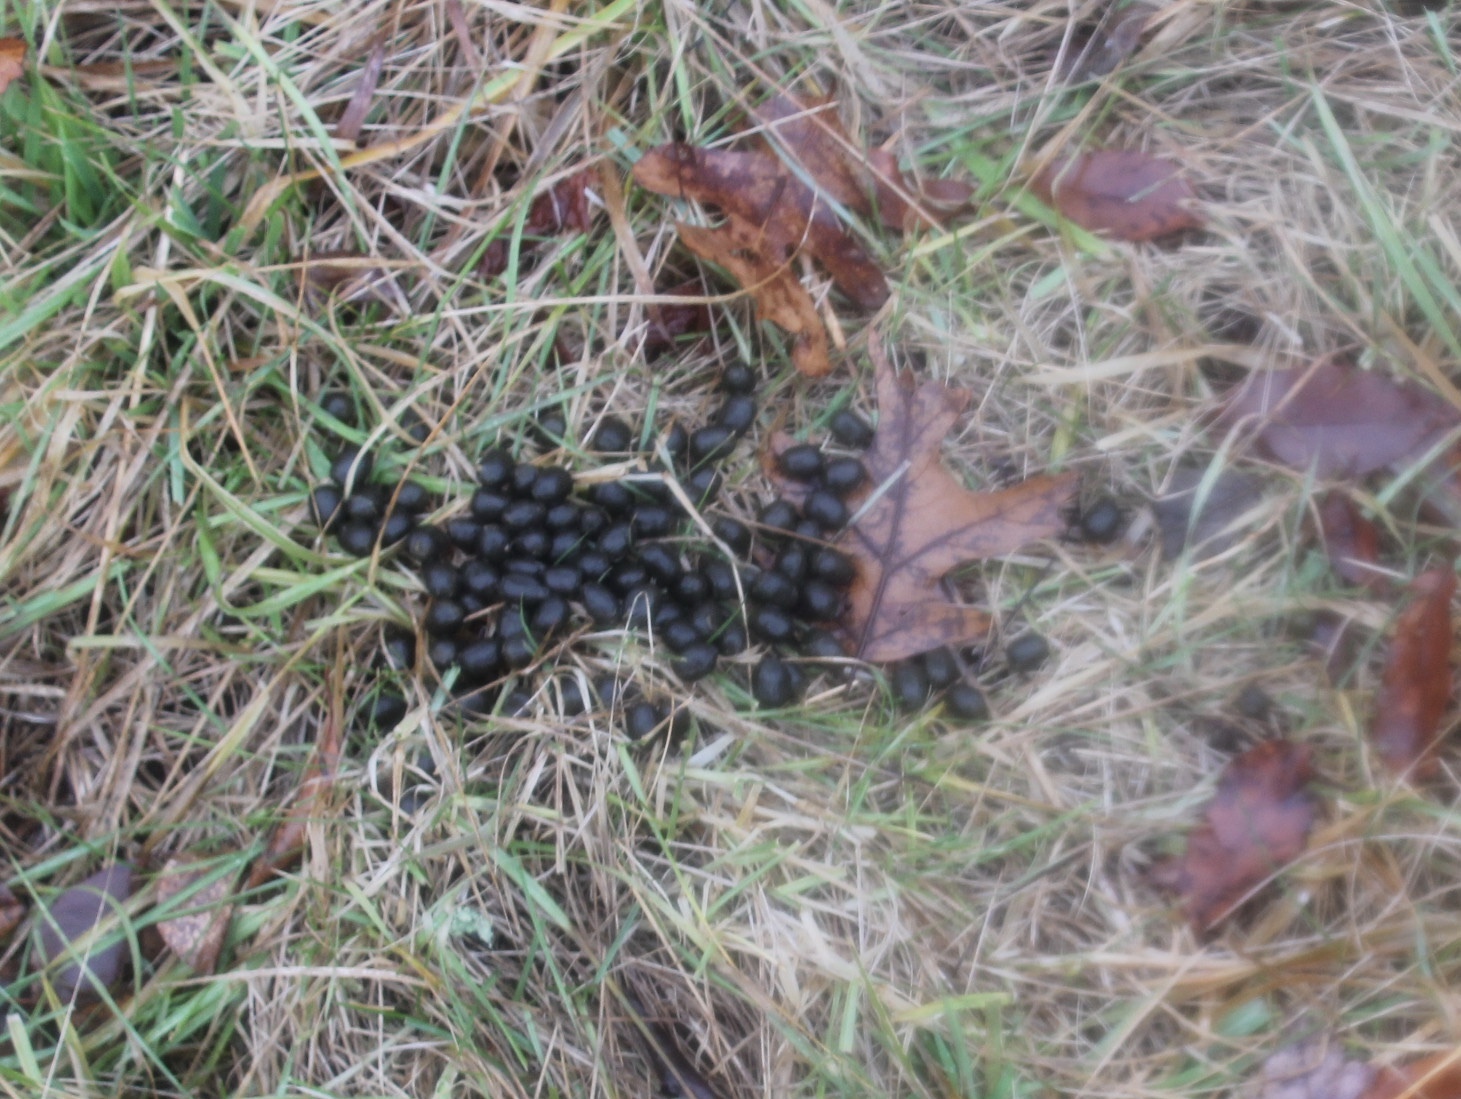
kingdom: Animalia
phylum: Chordata
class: Mammalia
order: Artiodactyla
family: Cervidae
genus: Odocoileus
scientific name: Odocoileus virginianus
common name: White-tailed deer
